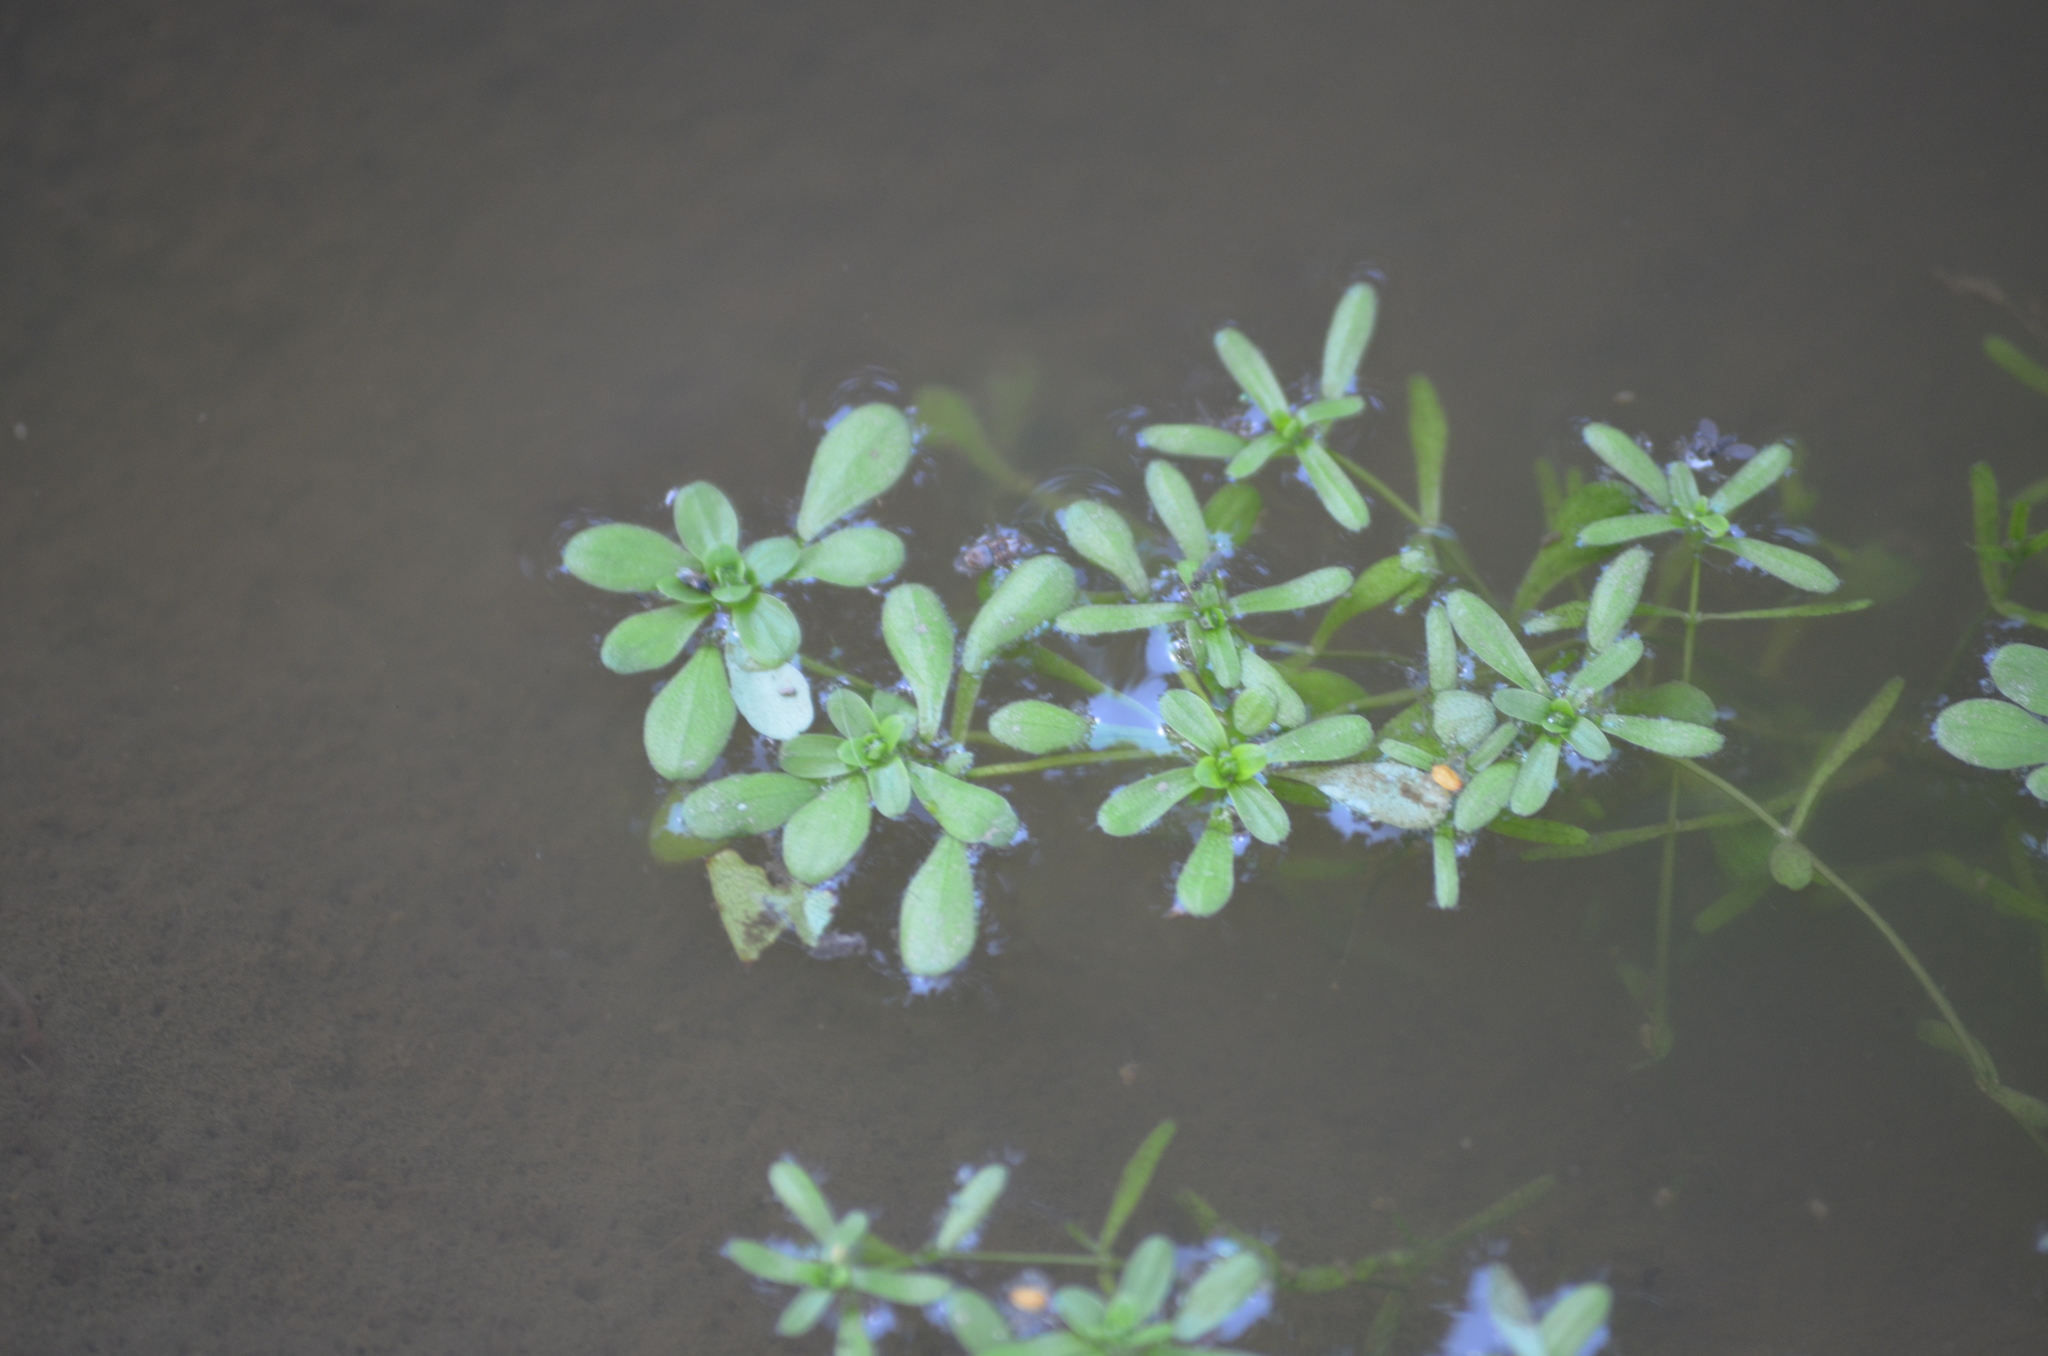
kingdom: Plantae
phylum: Tracheophyta
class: Magnoliopsida
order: Lamiales
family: Plantaginaceae
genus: Callitriche
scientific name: Callitriche brutia
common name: Pedunculate water-starwort
